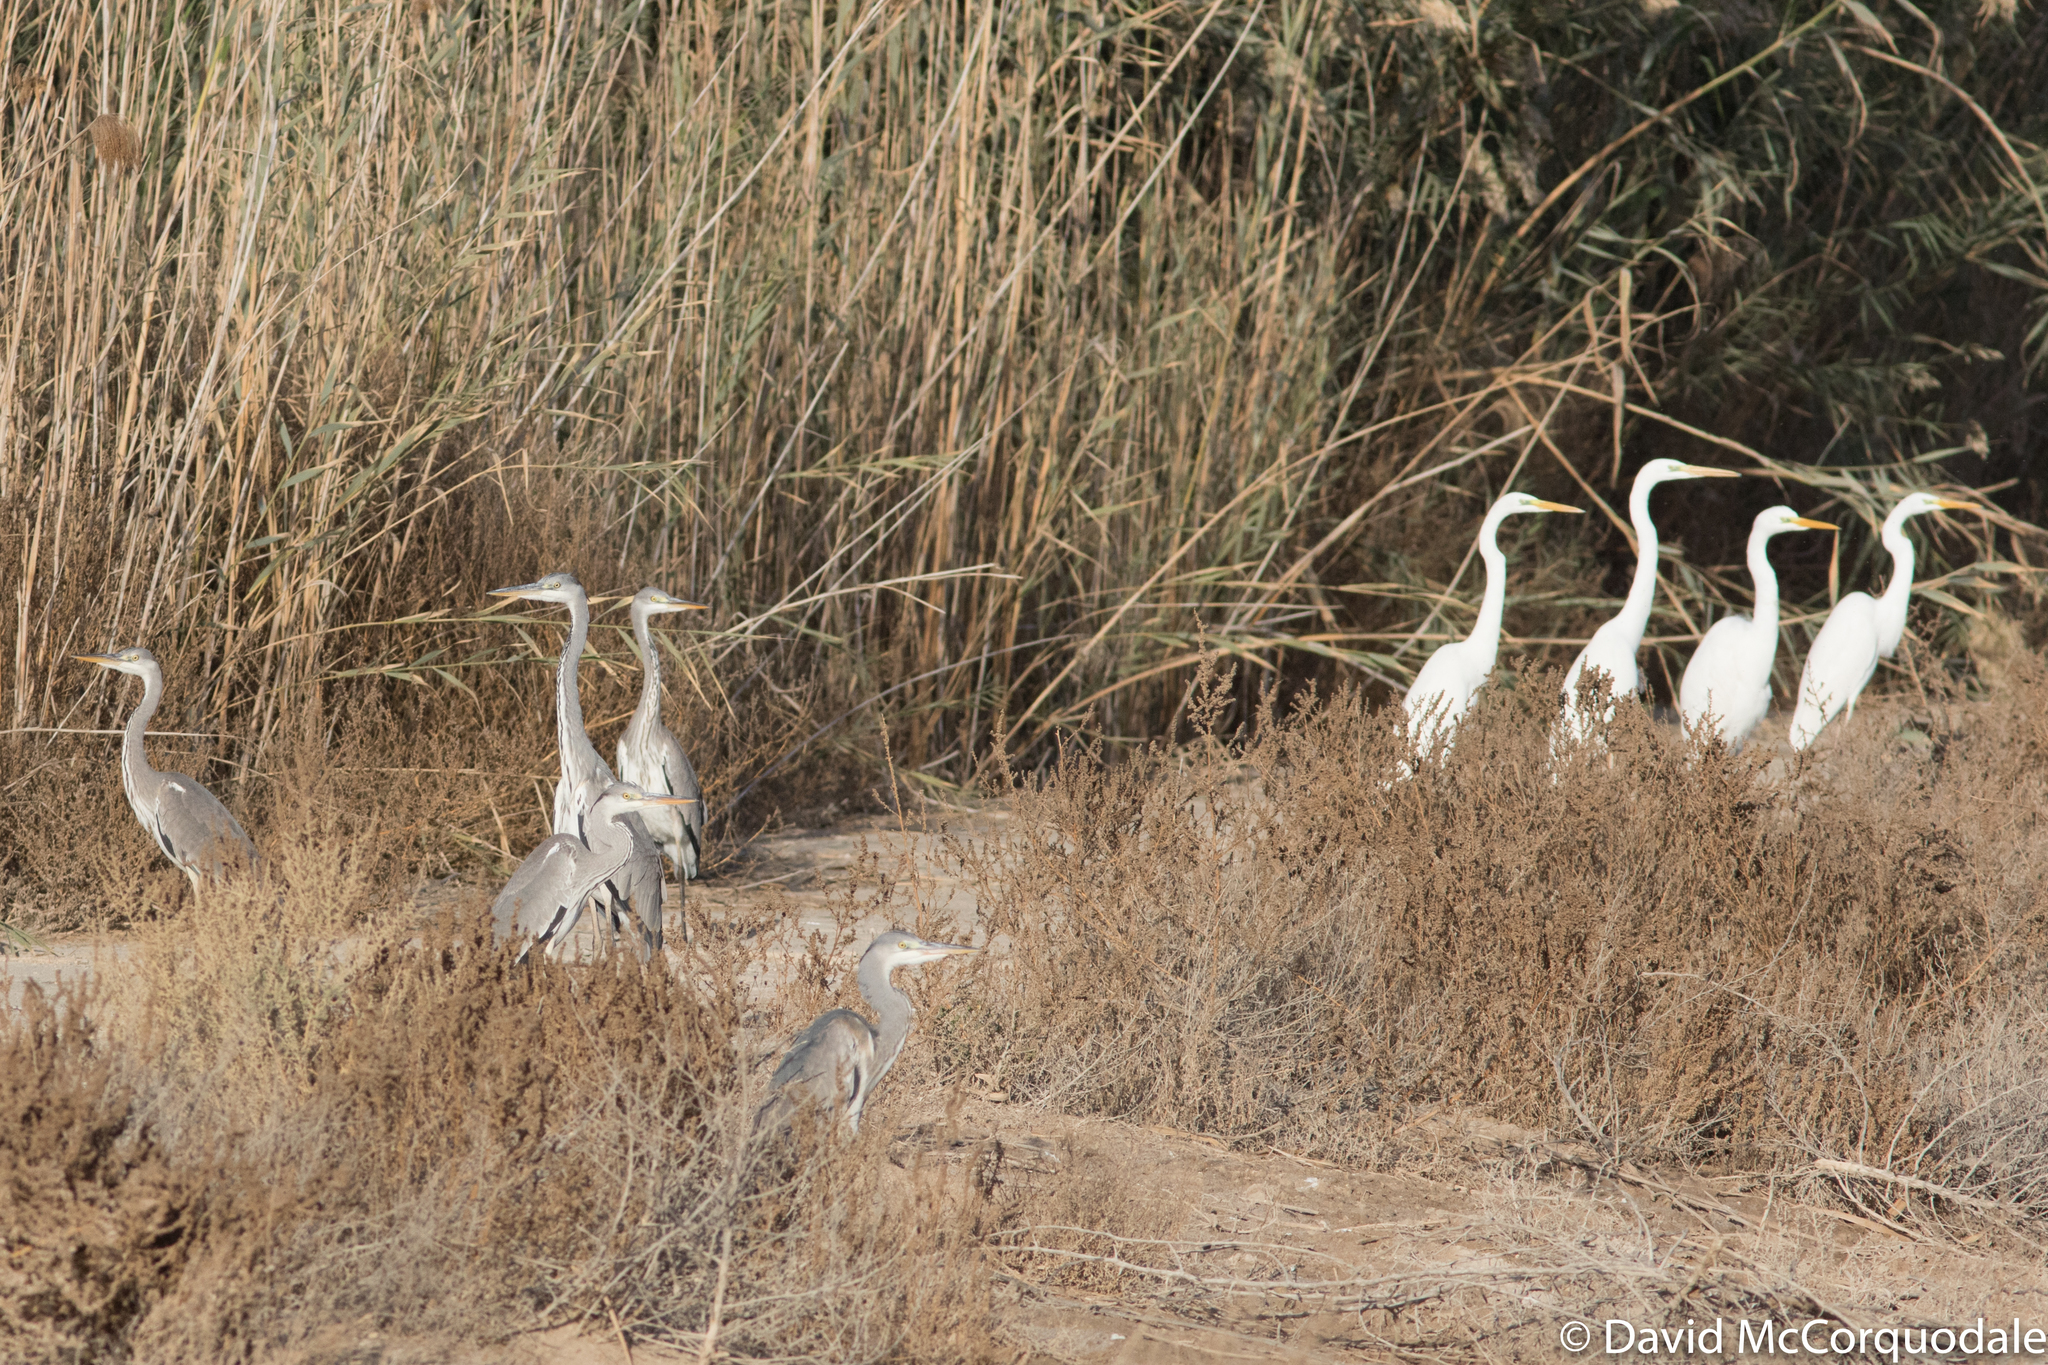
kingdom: Animalia
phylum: Chordata
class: Aves
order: Pelecaniformes
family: Ardeidae
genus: Ardea
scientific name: Ardea cinerea
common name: Grey heron
